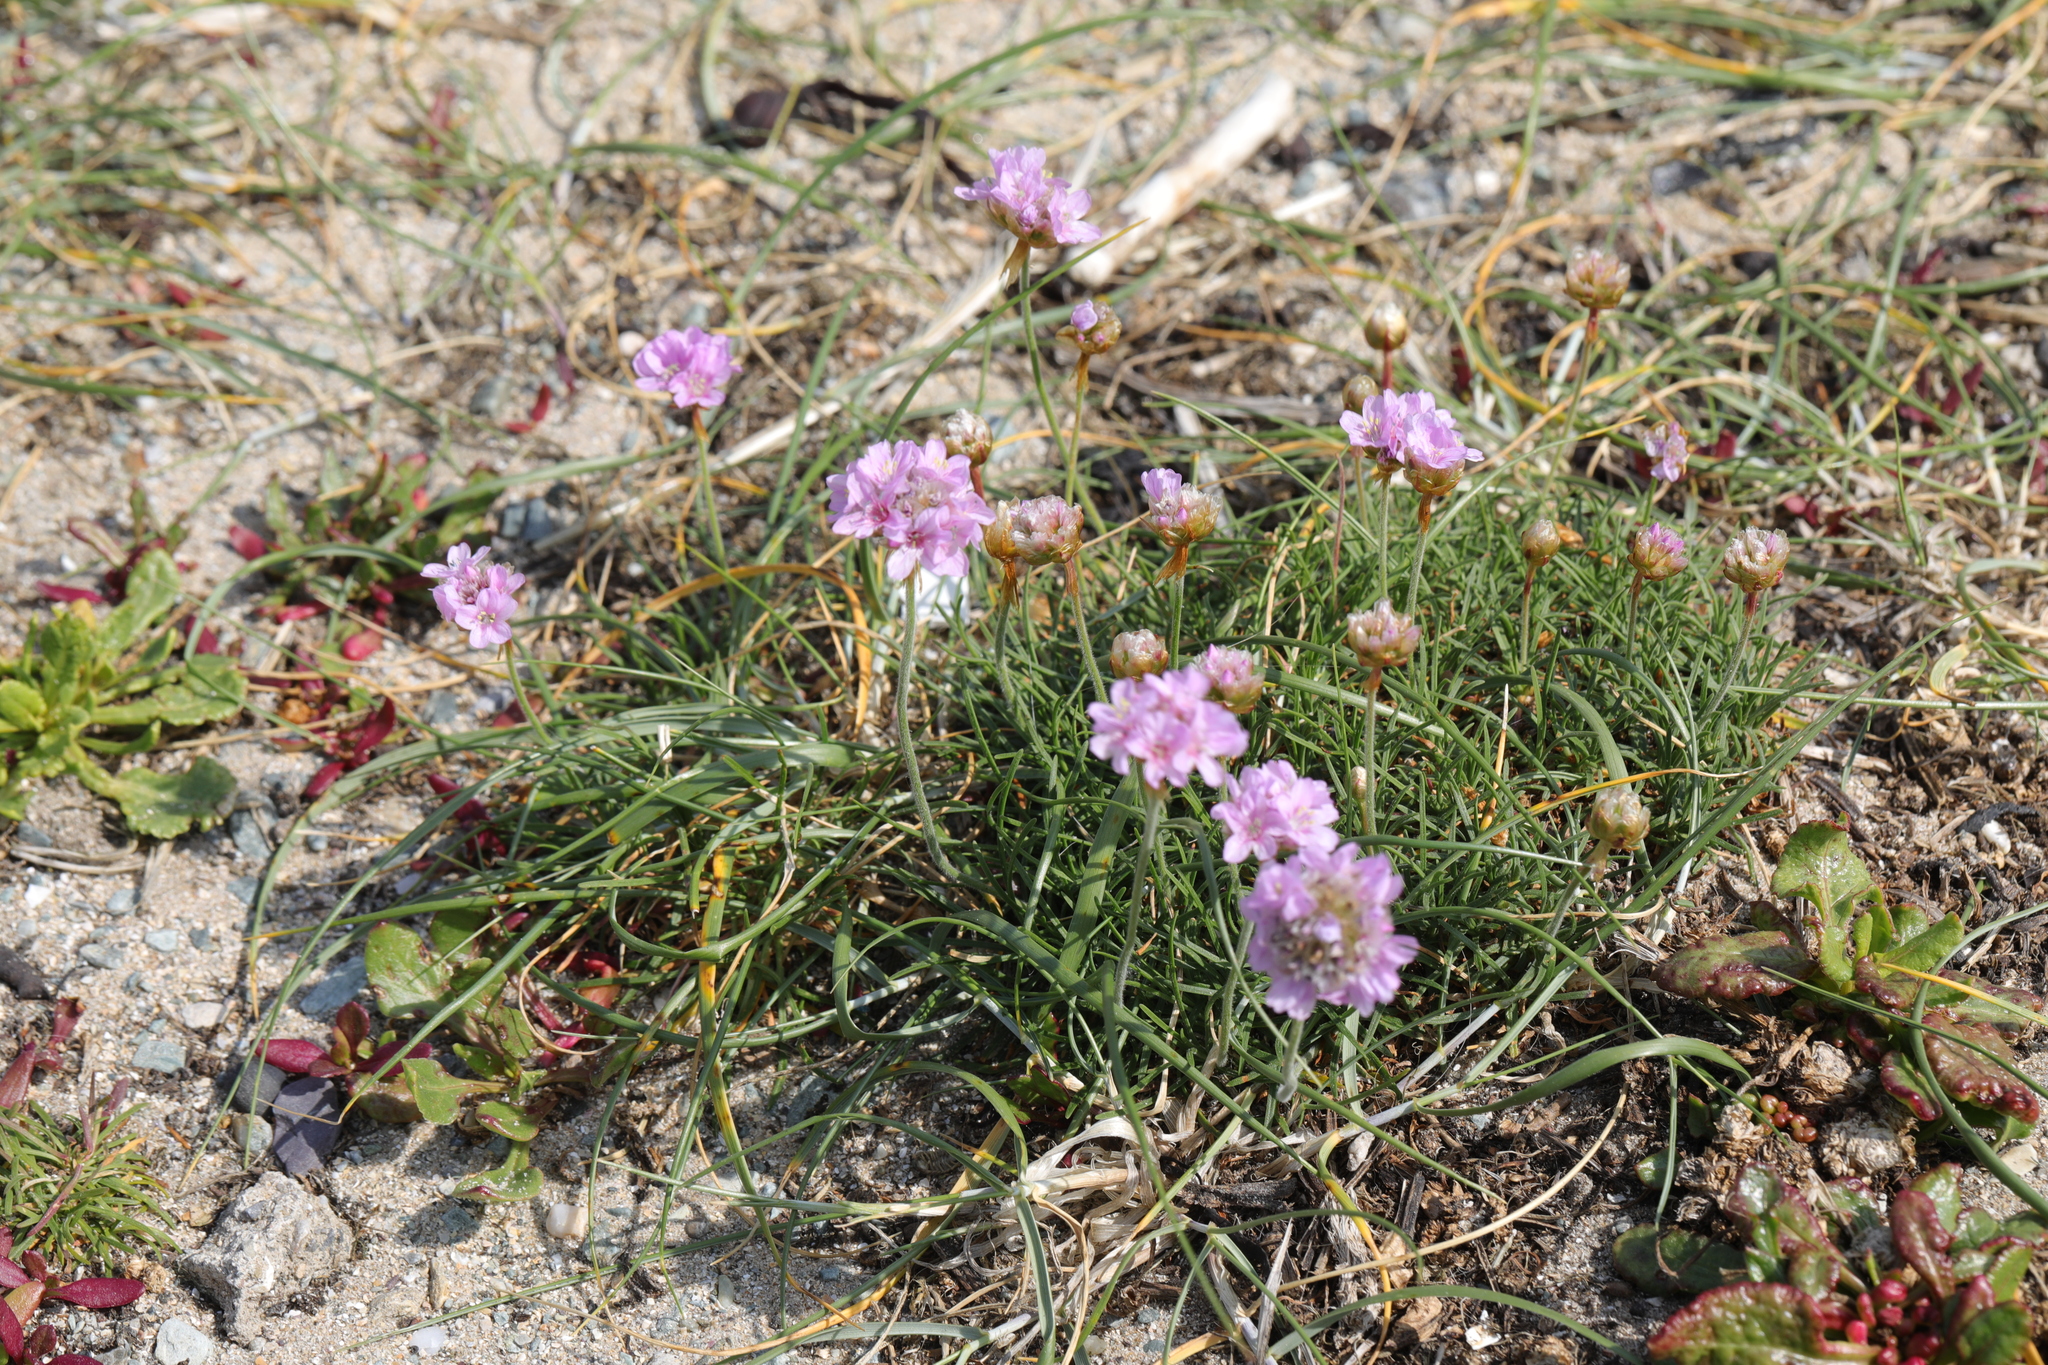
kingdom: Plantae
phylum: Tracheophyta
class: Magnoliopsida
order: Caryophyllales
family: Plumbaginaceae
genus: Armeria
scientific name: Armeria maritima
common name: Thrift
